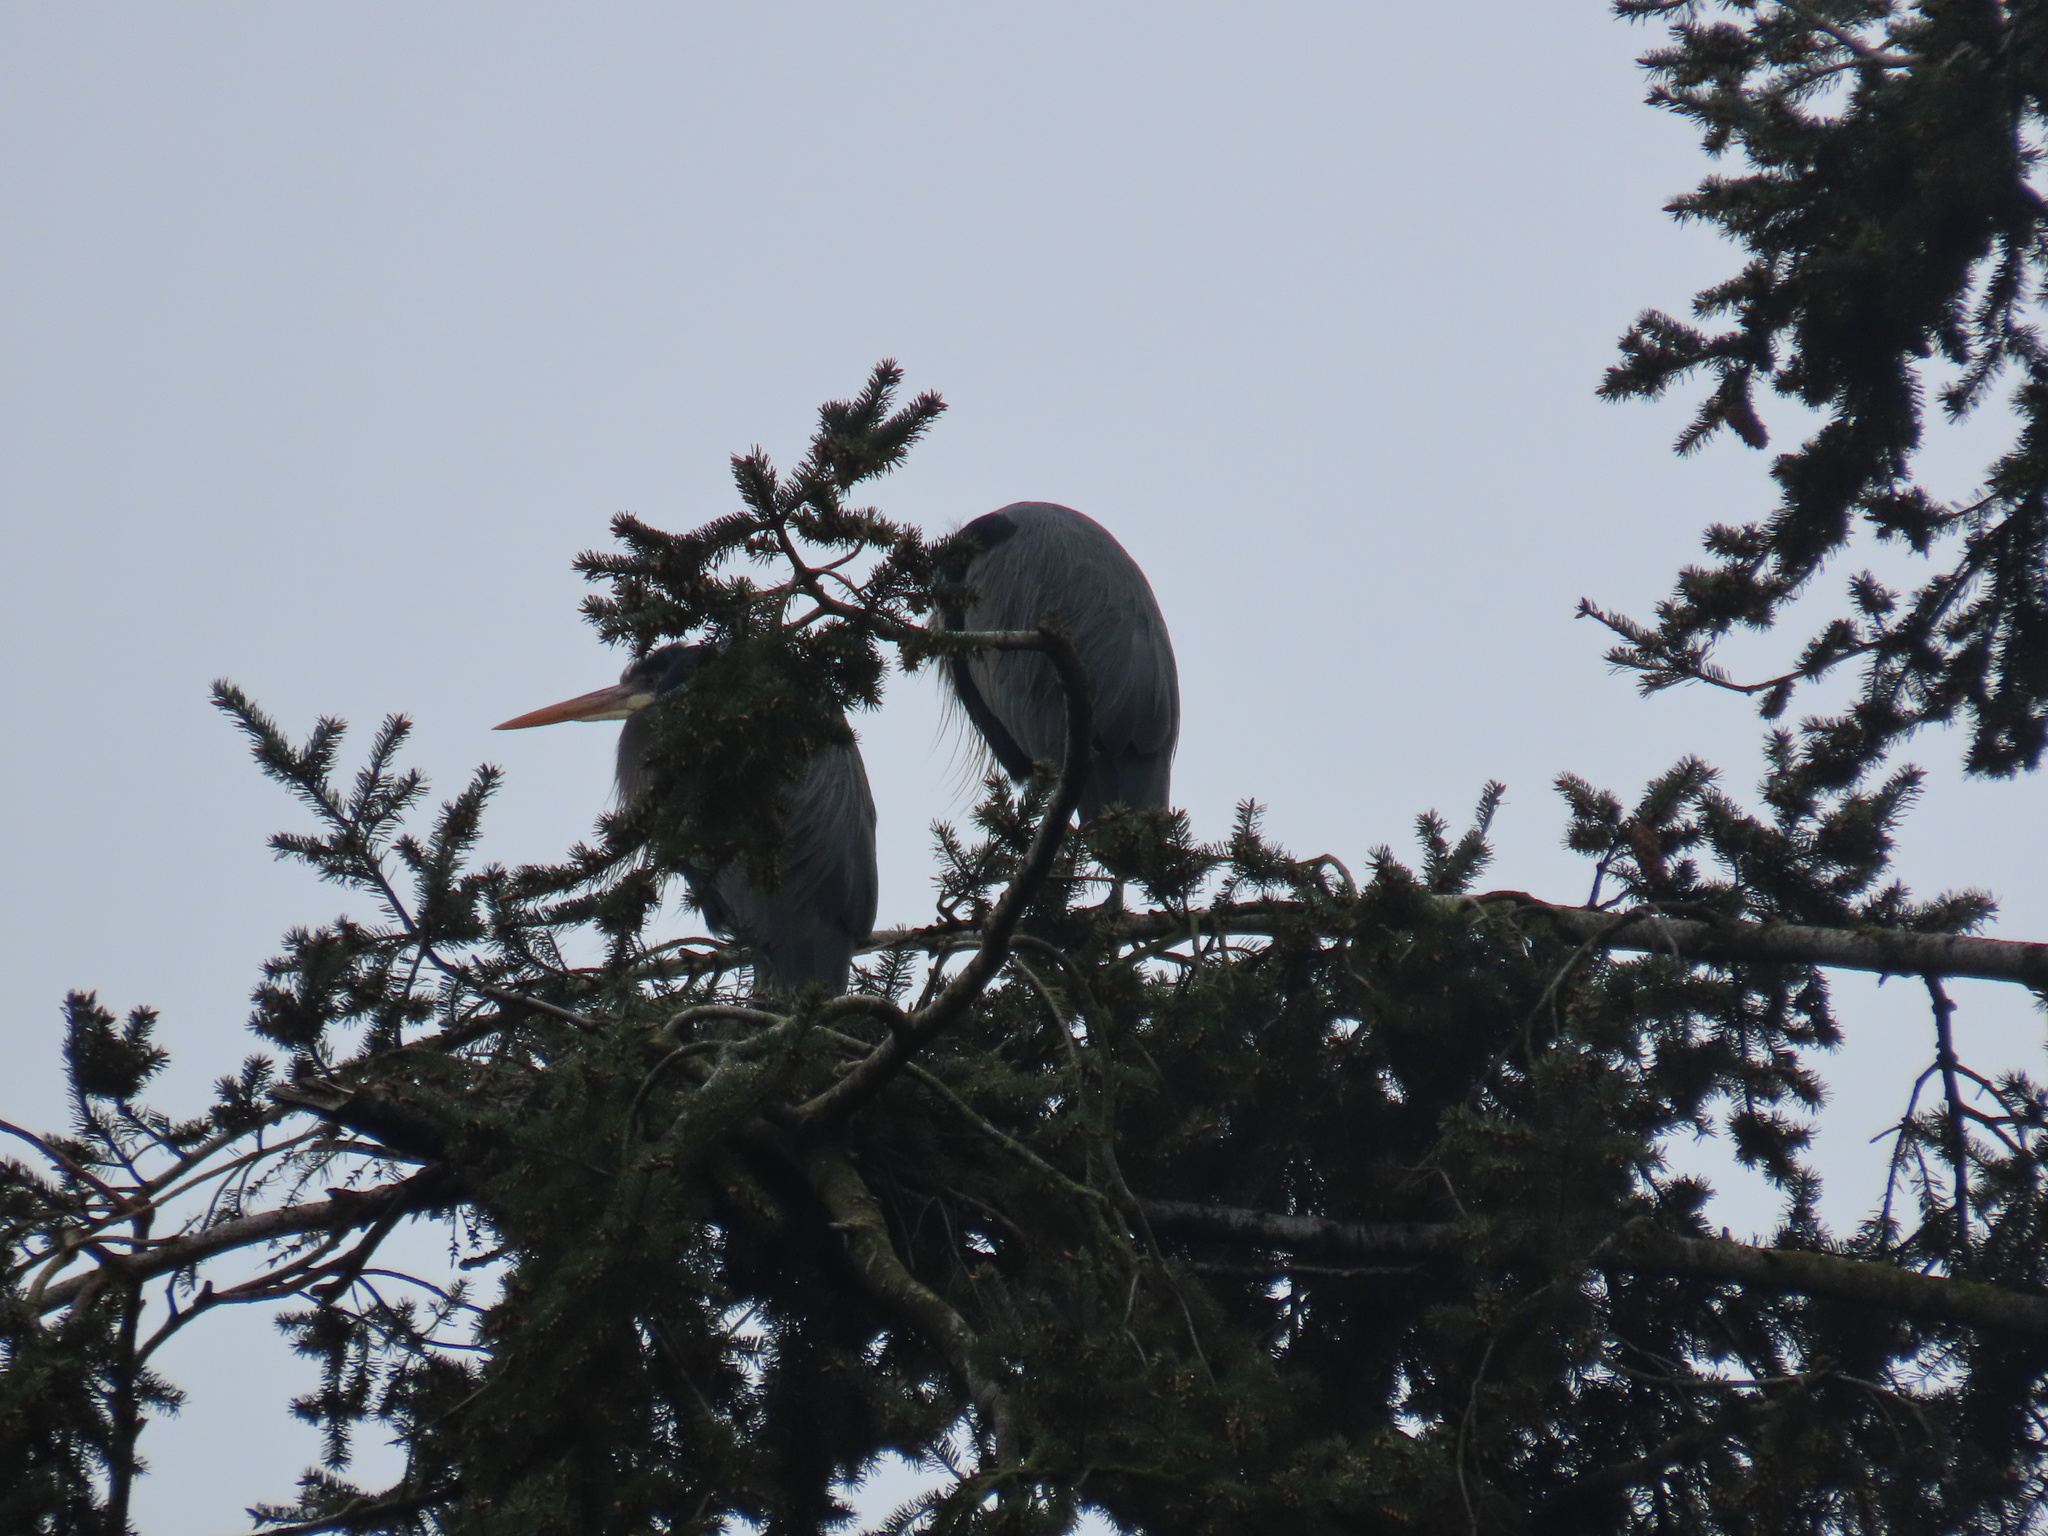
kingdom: Animalia
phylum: Chordata
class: Aves
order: Pelecaniformes
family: Ardeidae
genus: Ardea
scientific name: Ardea herodias
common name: Great blue heron
